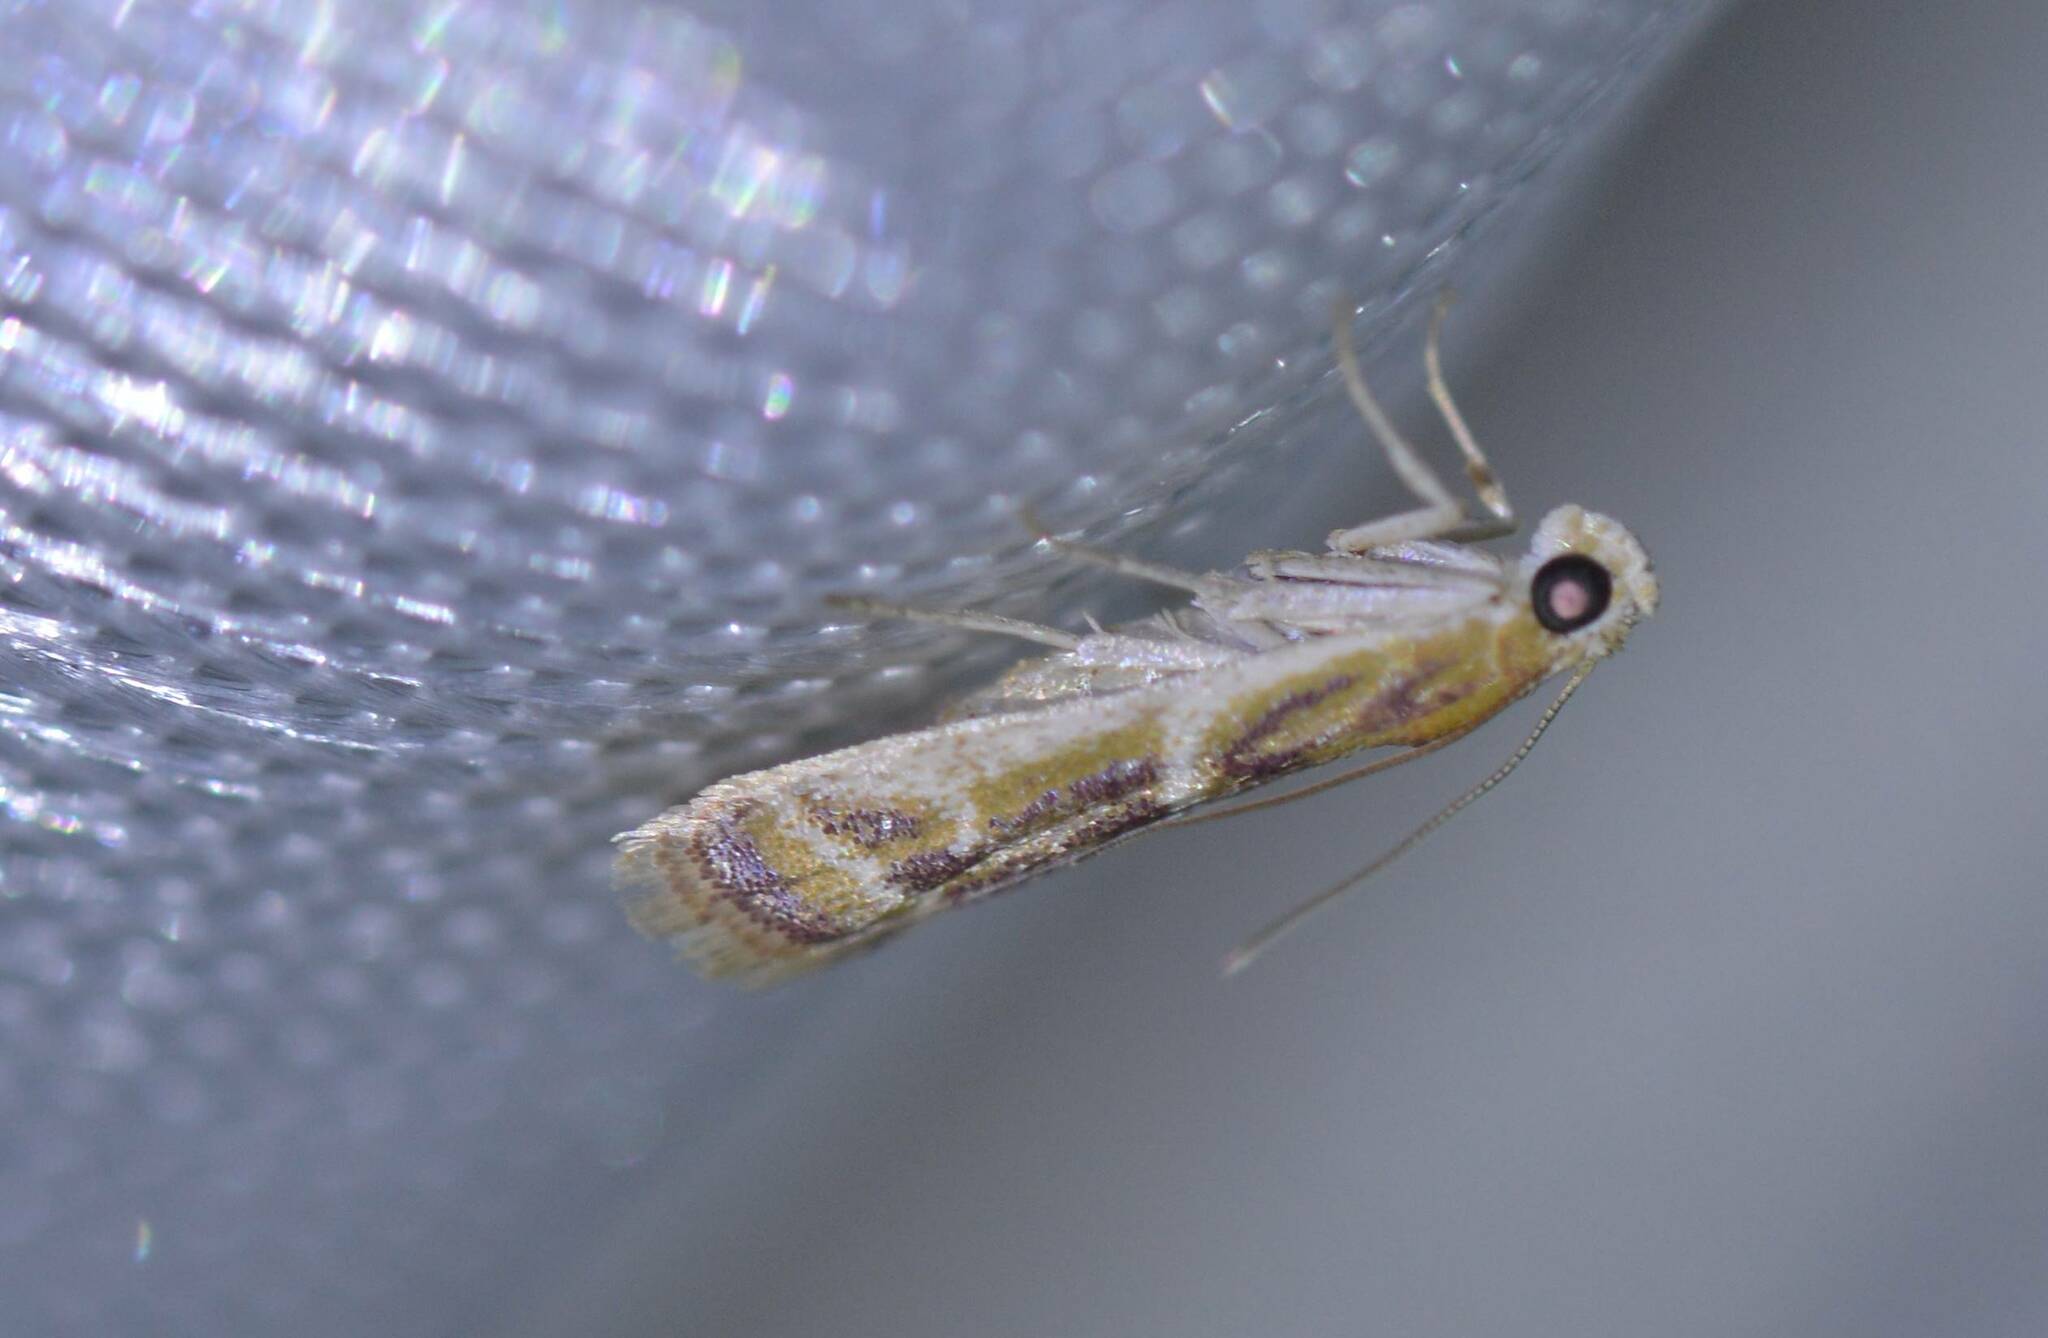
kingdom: Animalia
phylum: Arthropoda
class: Insecta
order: Lepidoptera
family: Pyralidae
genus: Ancylosis
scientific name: Ancylosis faustinella
